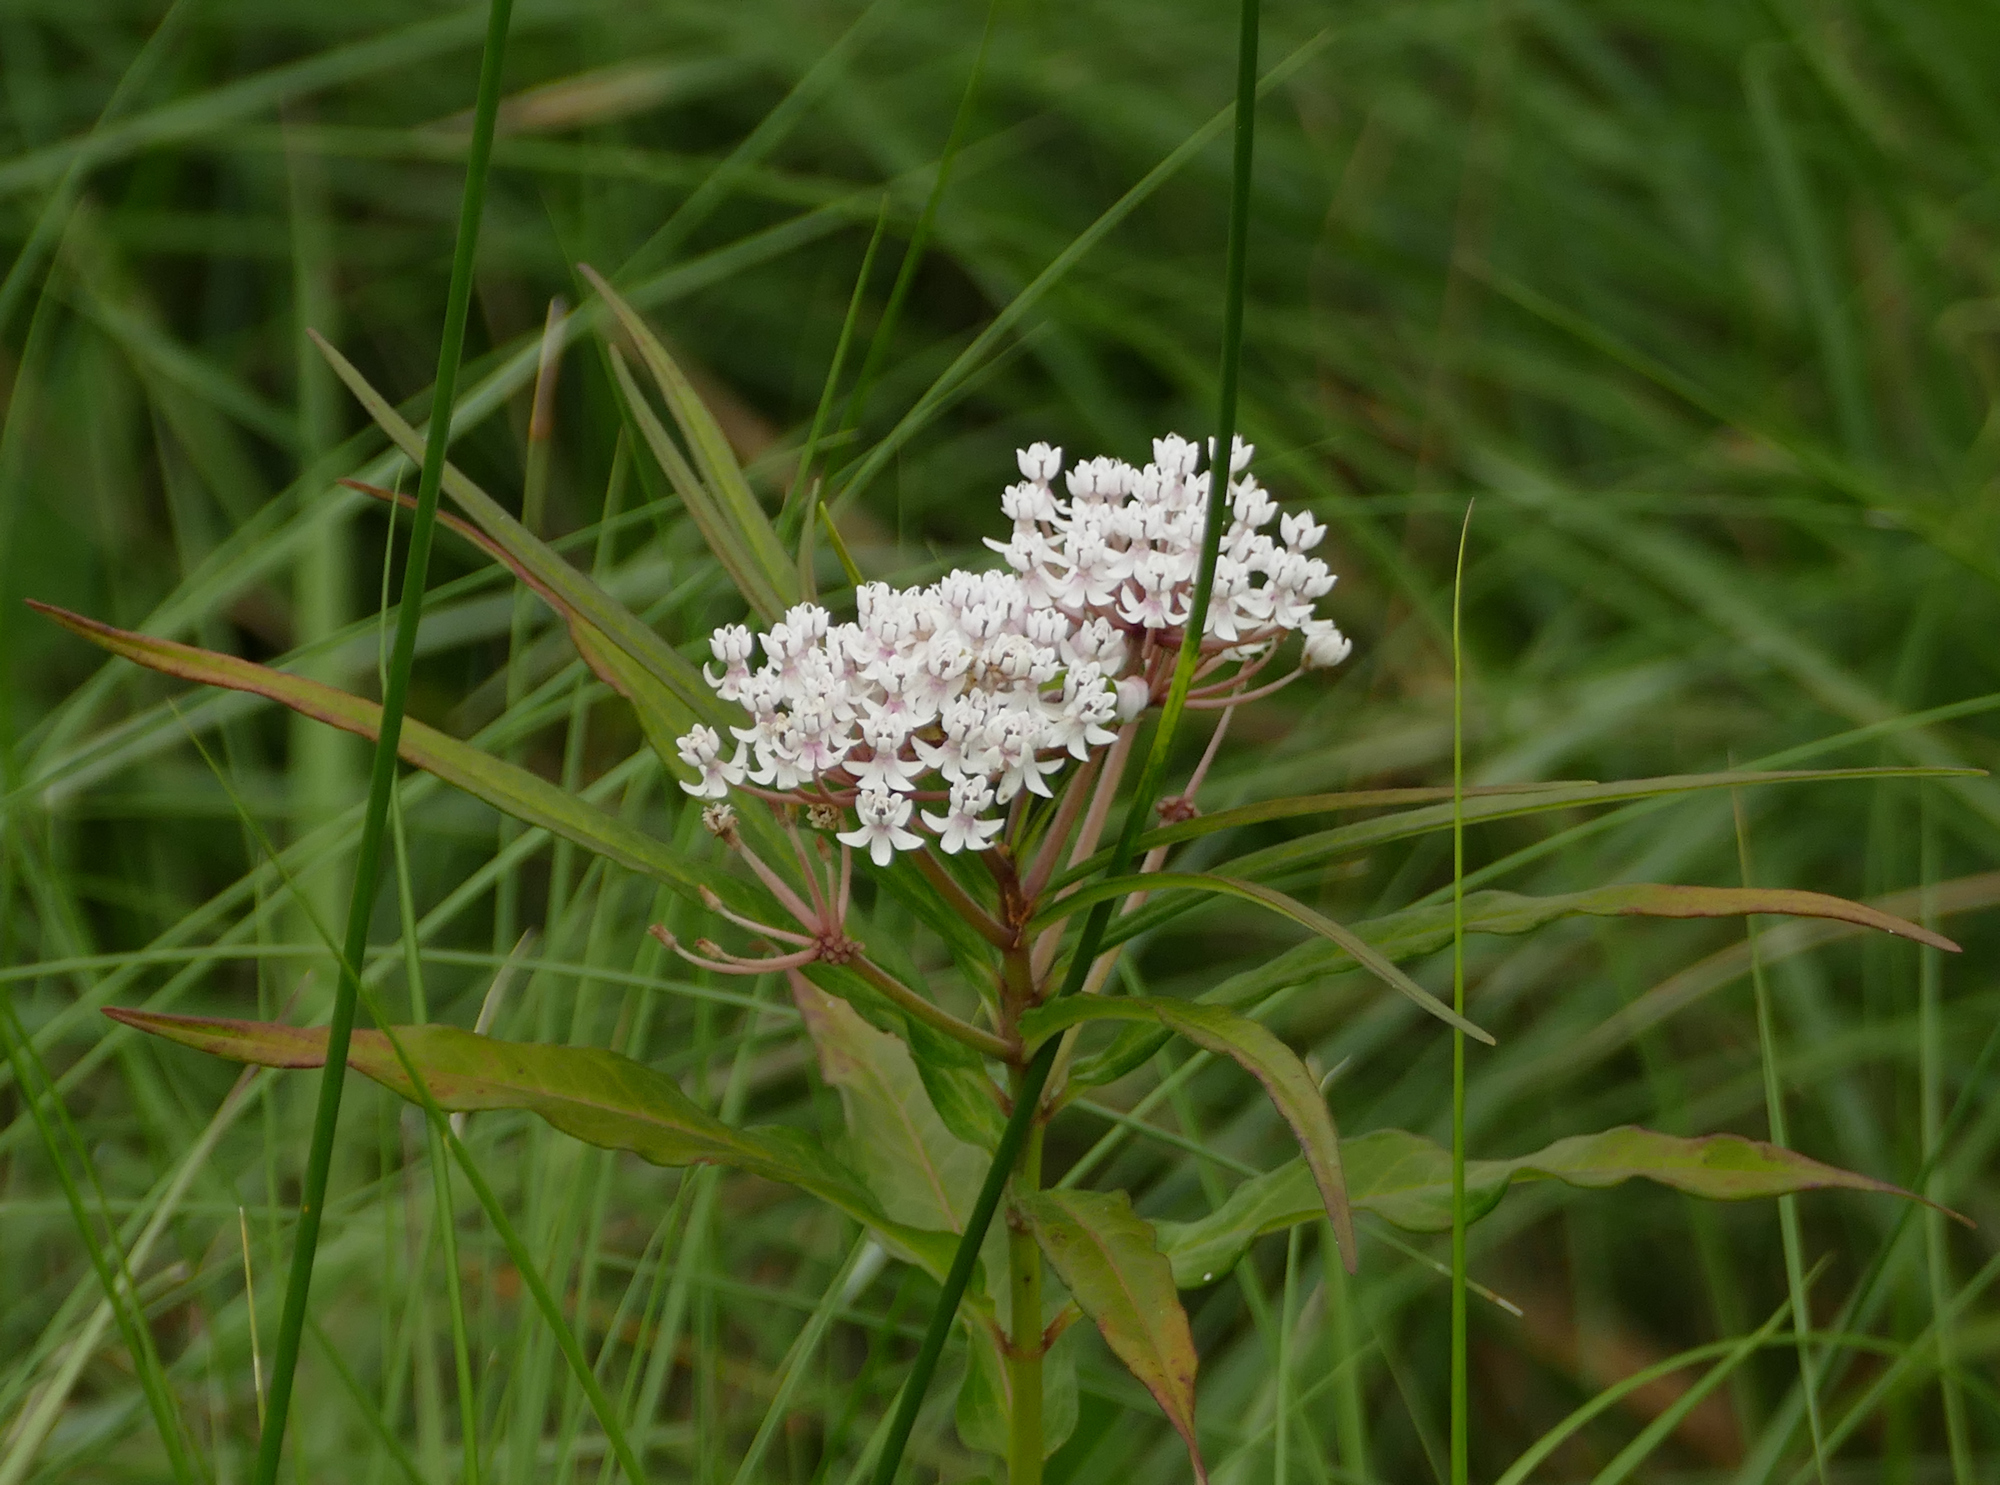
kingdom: Plantae
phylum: Tracheophyta
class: Magnoliopsida
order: Gentianales
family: Apocynaceae
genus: Asclepias
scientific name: Asclepias perennis
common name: Smooth-seed milkweed
